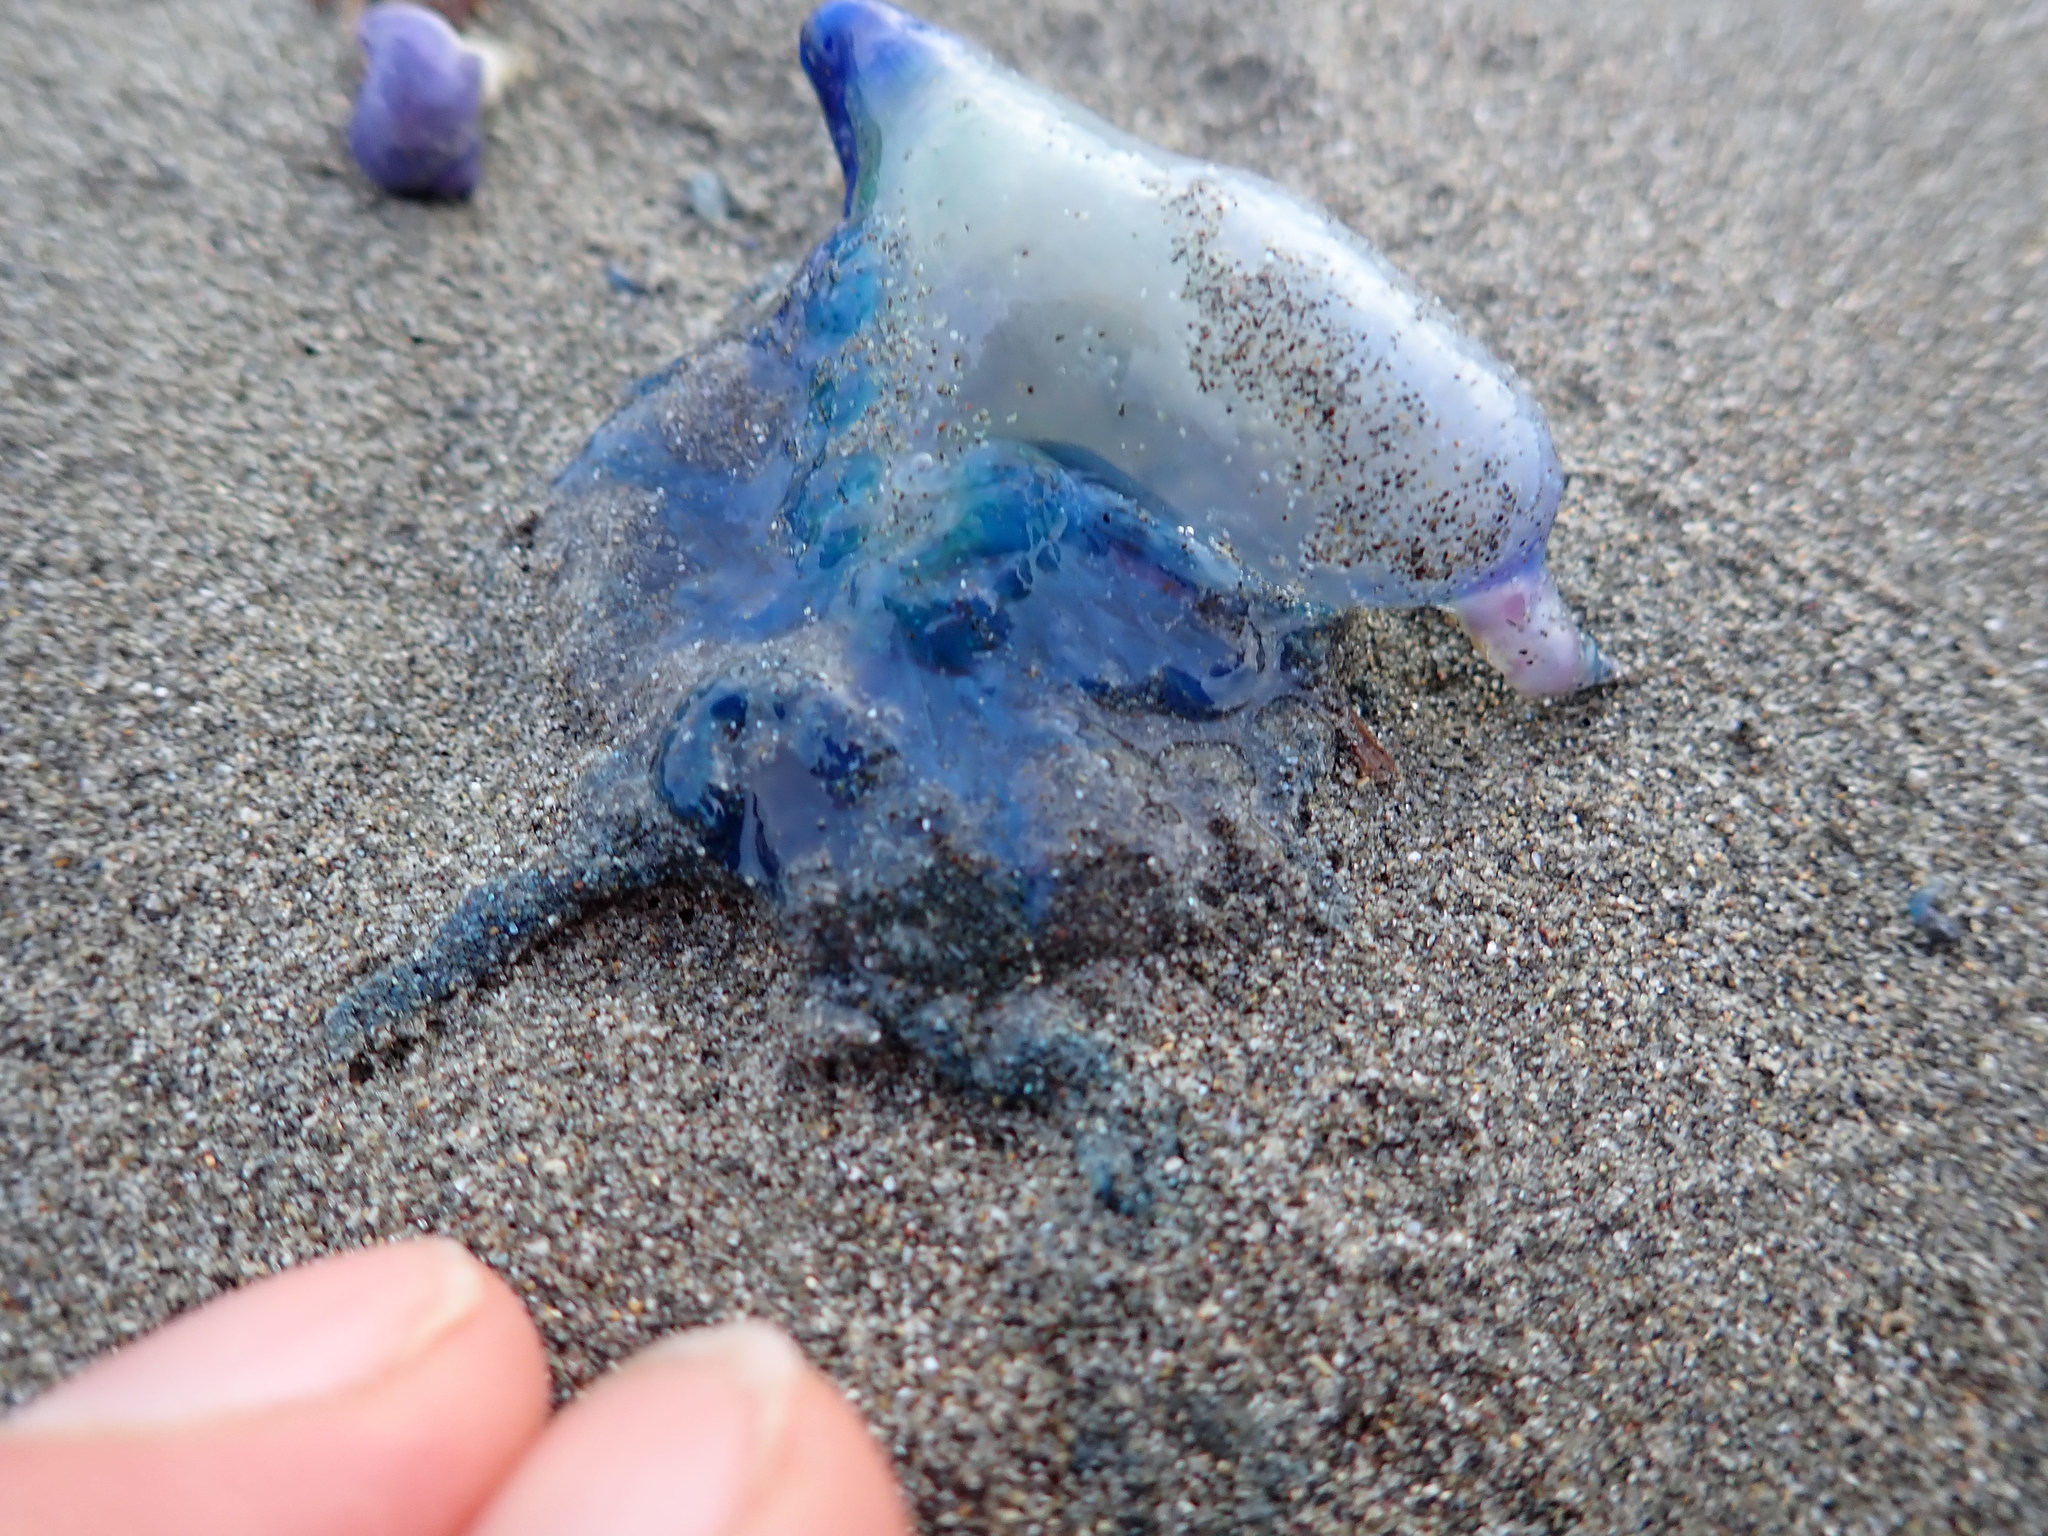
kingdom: Animalia
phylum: Cnidaria
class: Hydrozoa
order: Siphonophorae
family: Physaliidae
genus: Physalia
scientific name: Physalia physalis
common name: Portuguese man-of-war
